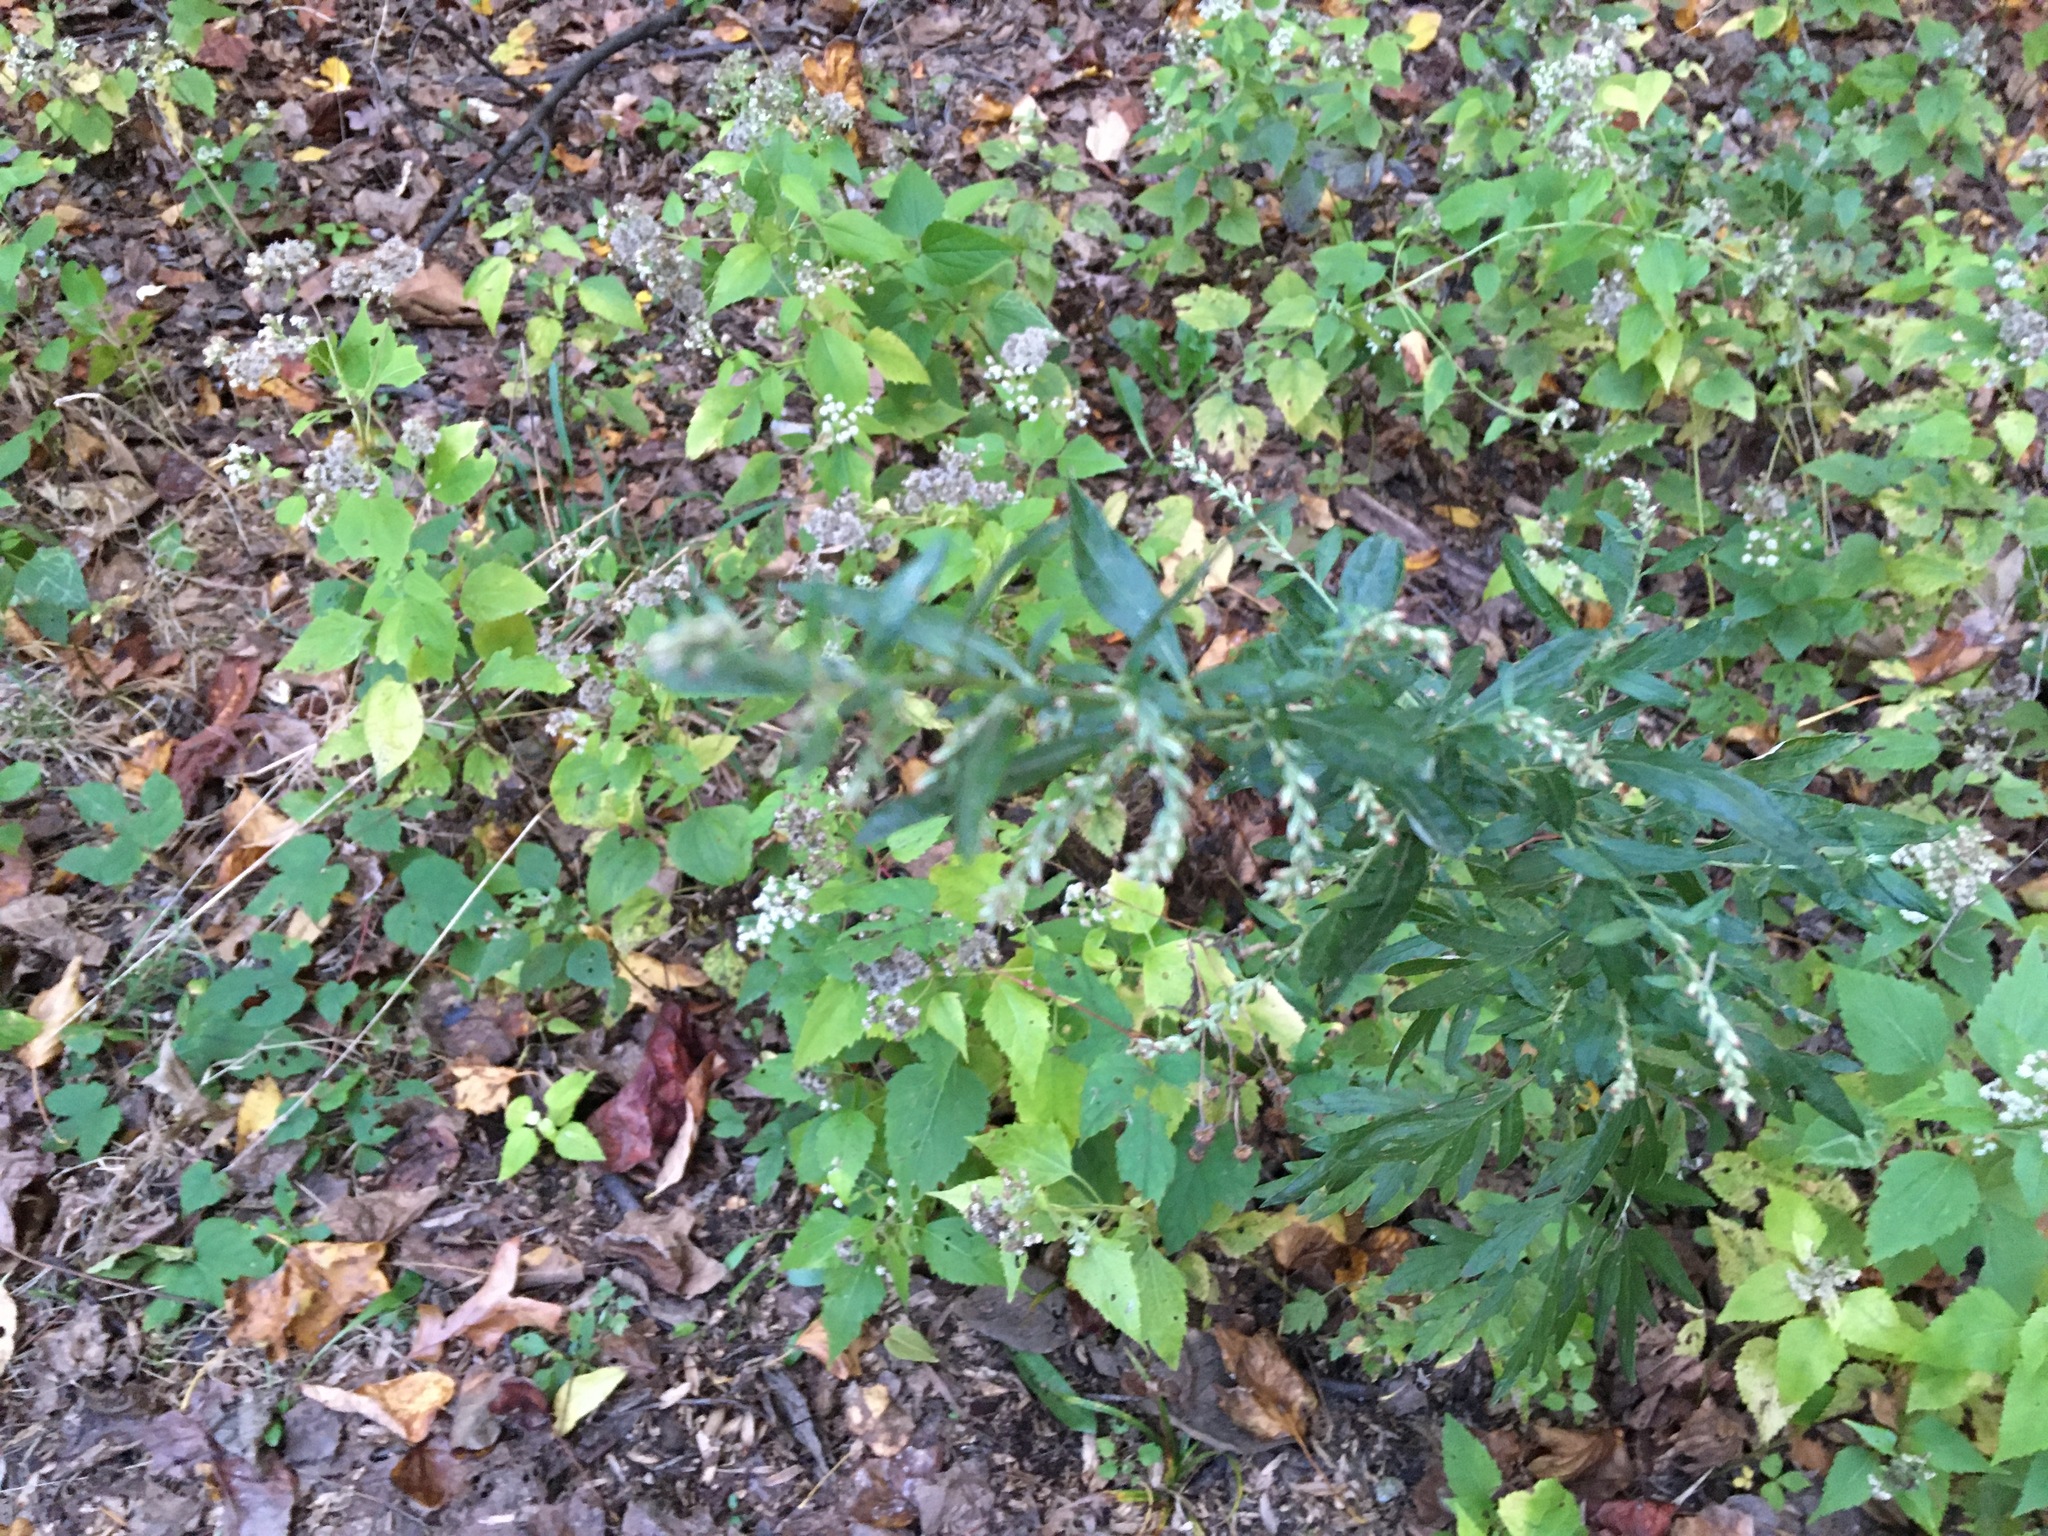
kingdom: Plantae
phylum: Tracheophyta
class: Magnoliopsida
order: Asterales
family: Asteraceae
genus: Artemisia
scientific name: Artemisia vulgaris
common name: Mugwort
